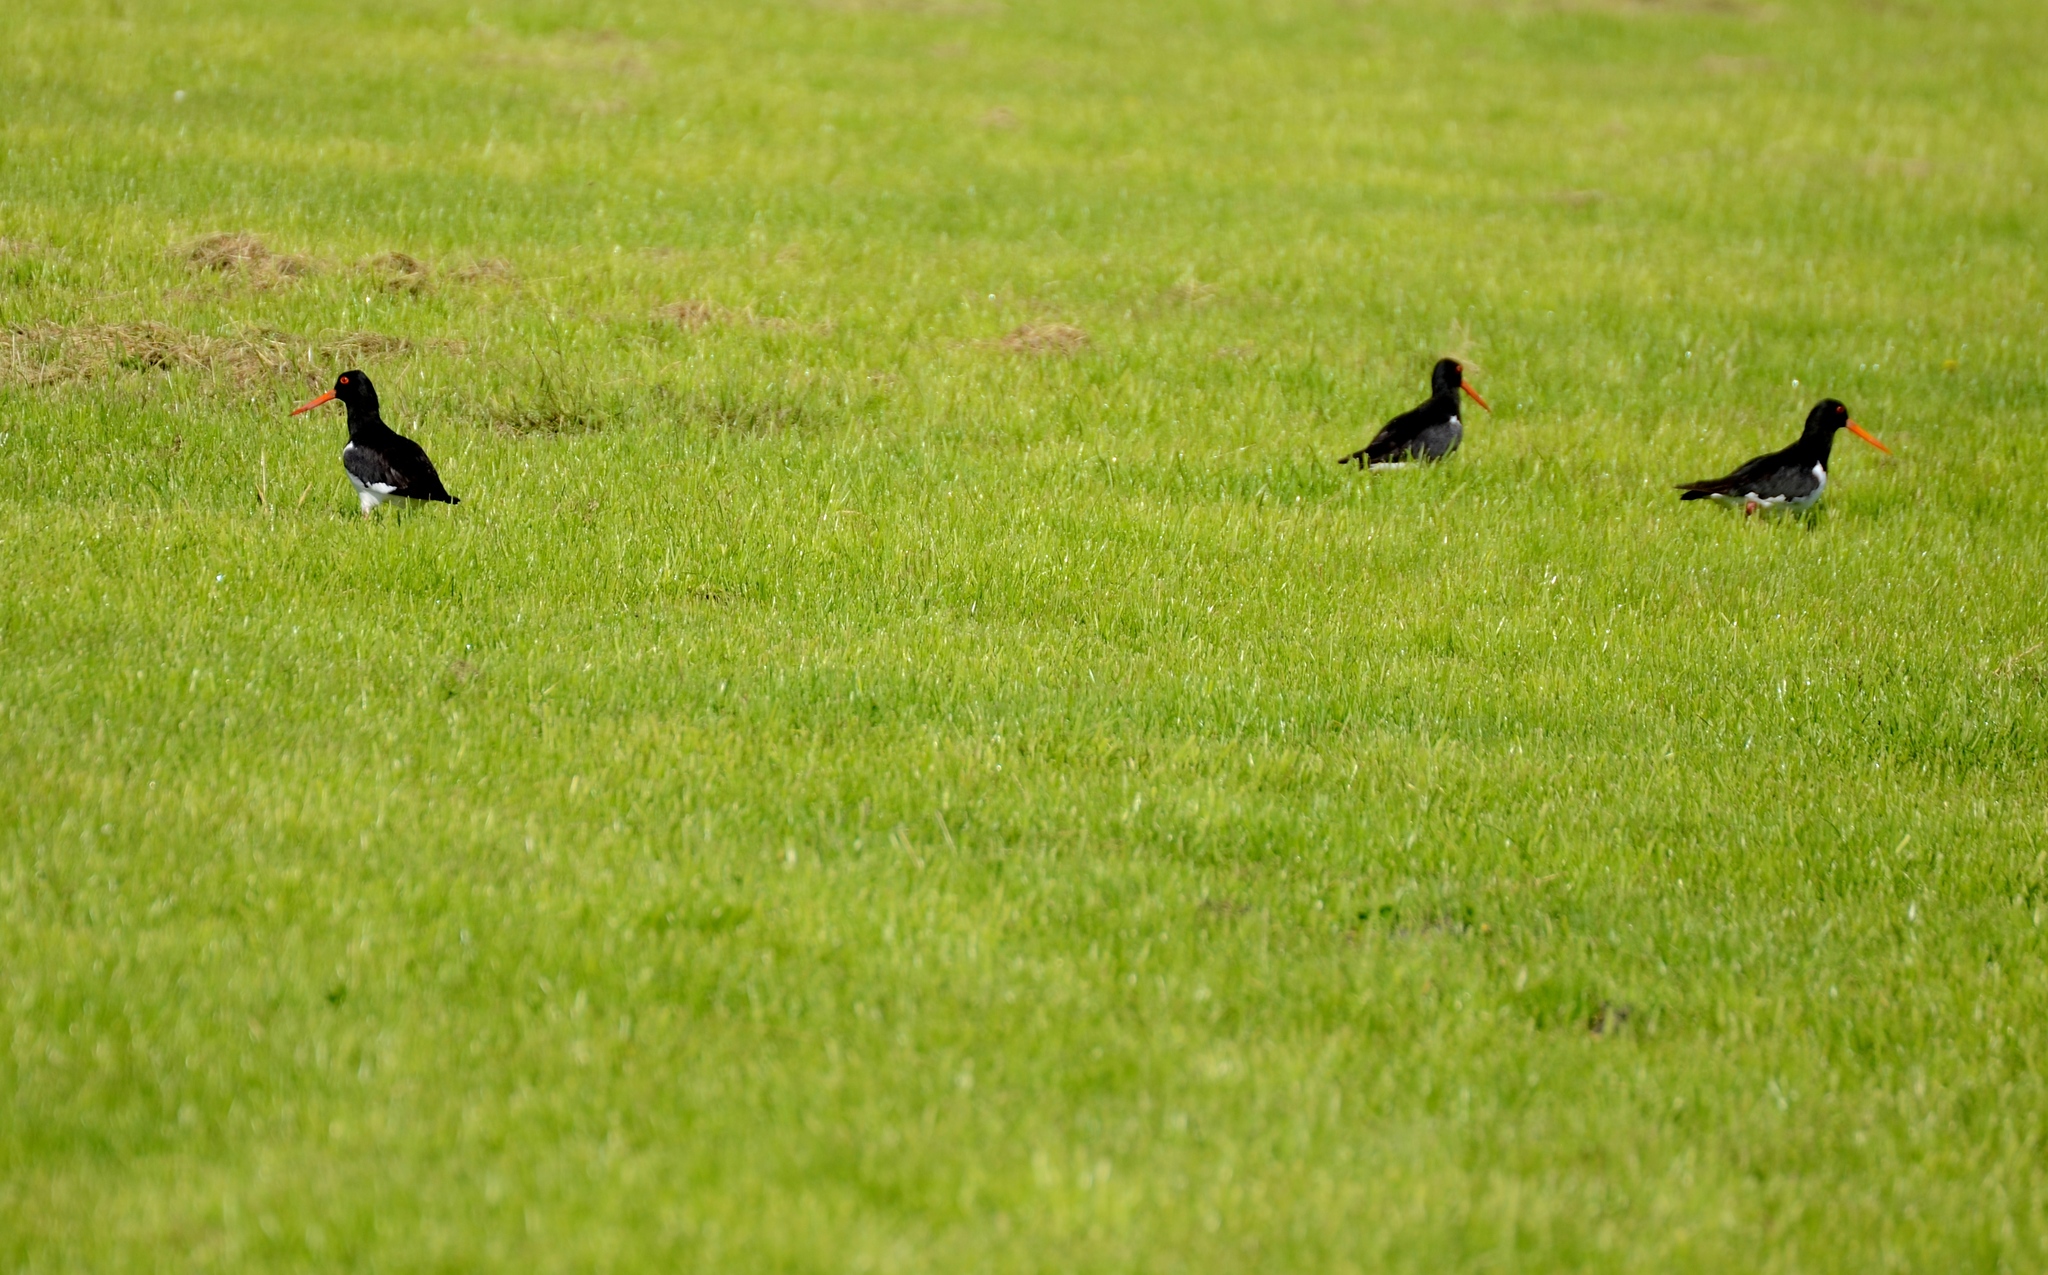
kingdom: Animalia
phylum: Chordata
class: Aves
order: Charadriiformes
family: Haematopodidae
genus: Haematopus
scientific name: Haematopus finschi
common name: South island oystercatcher
